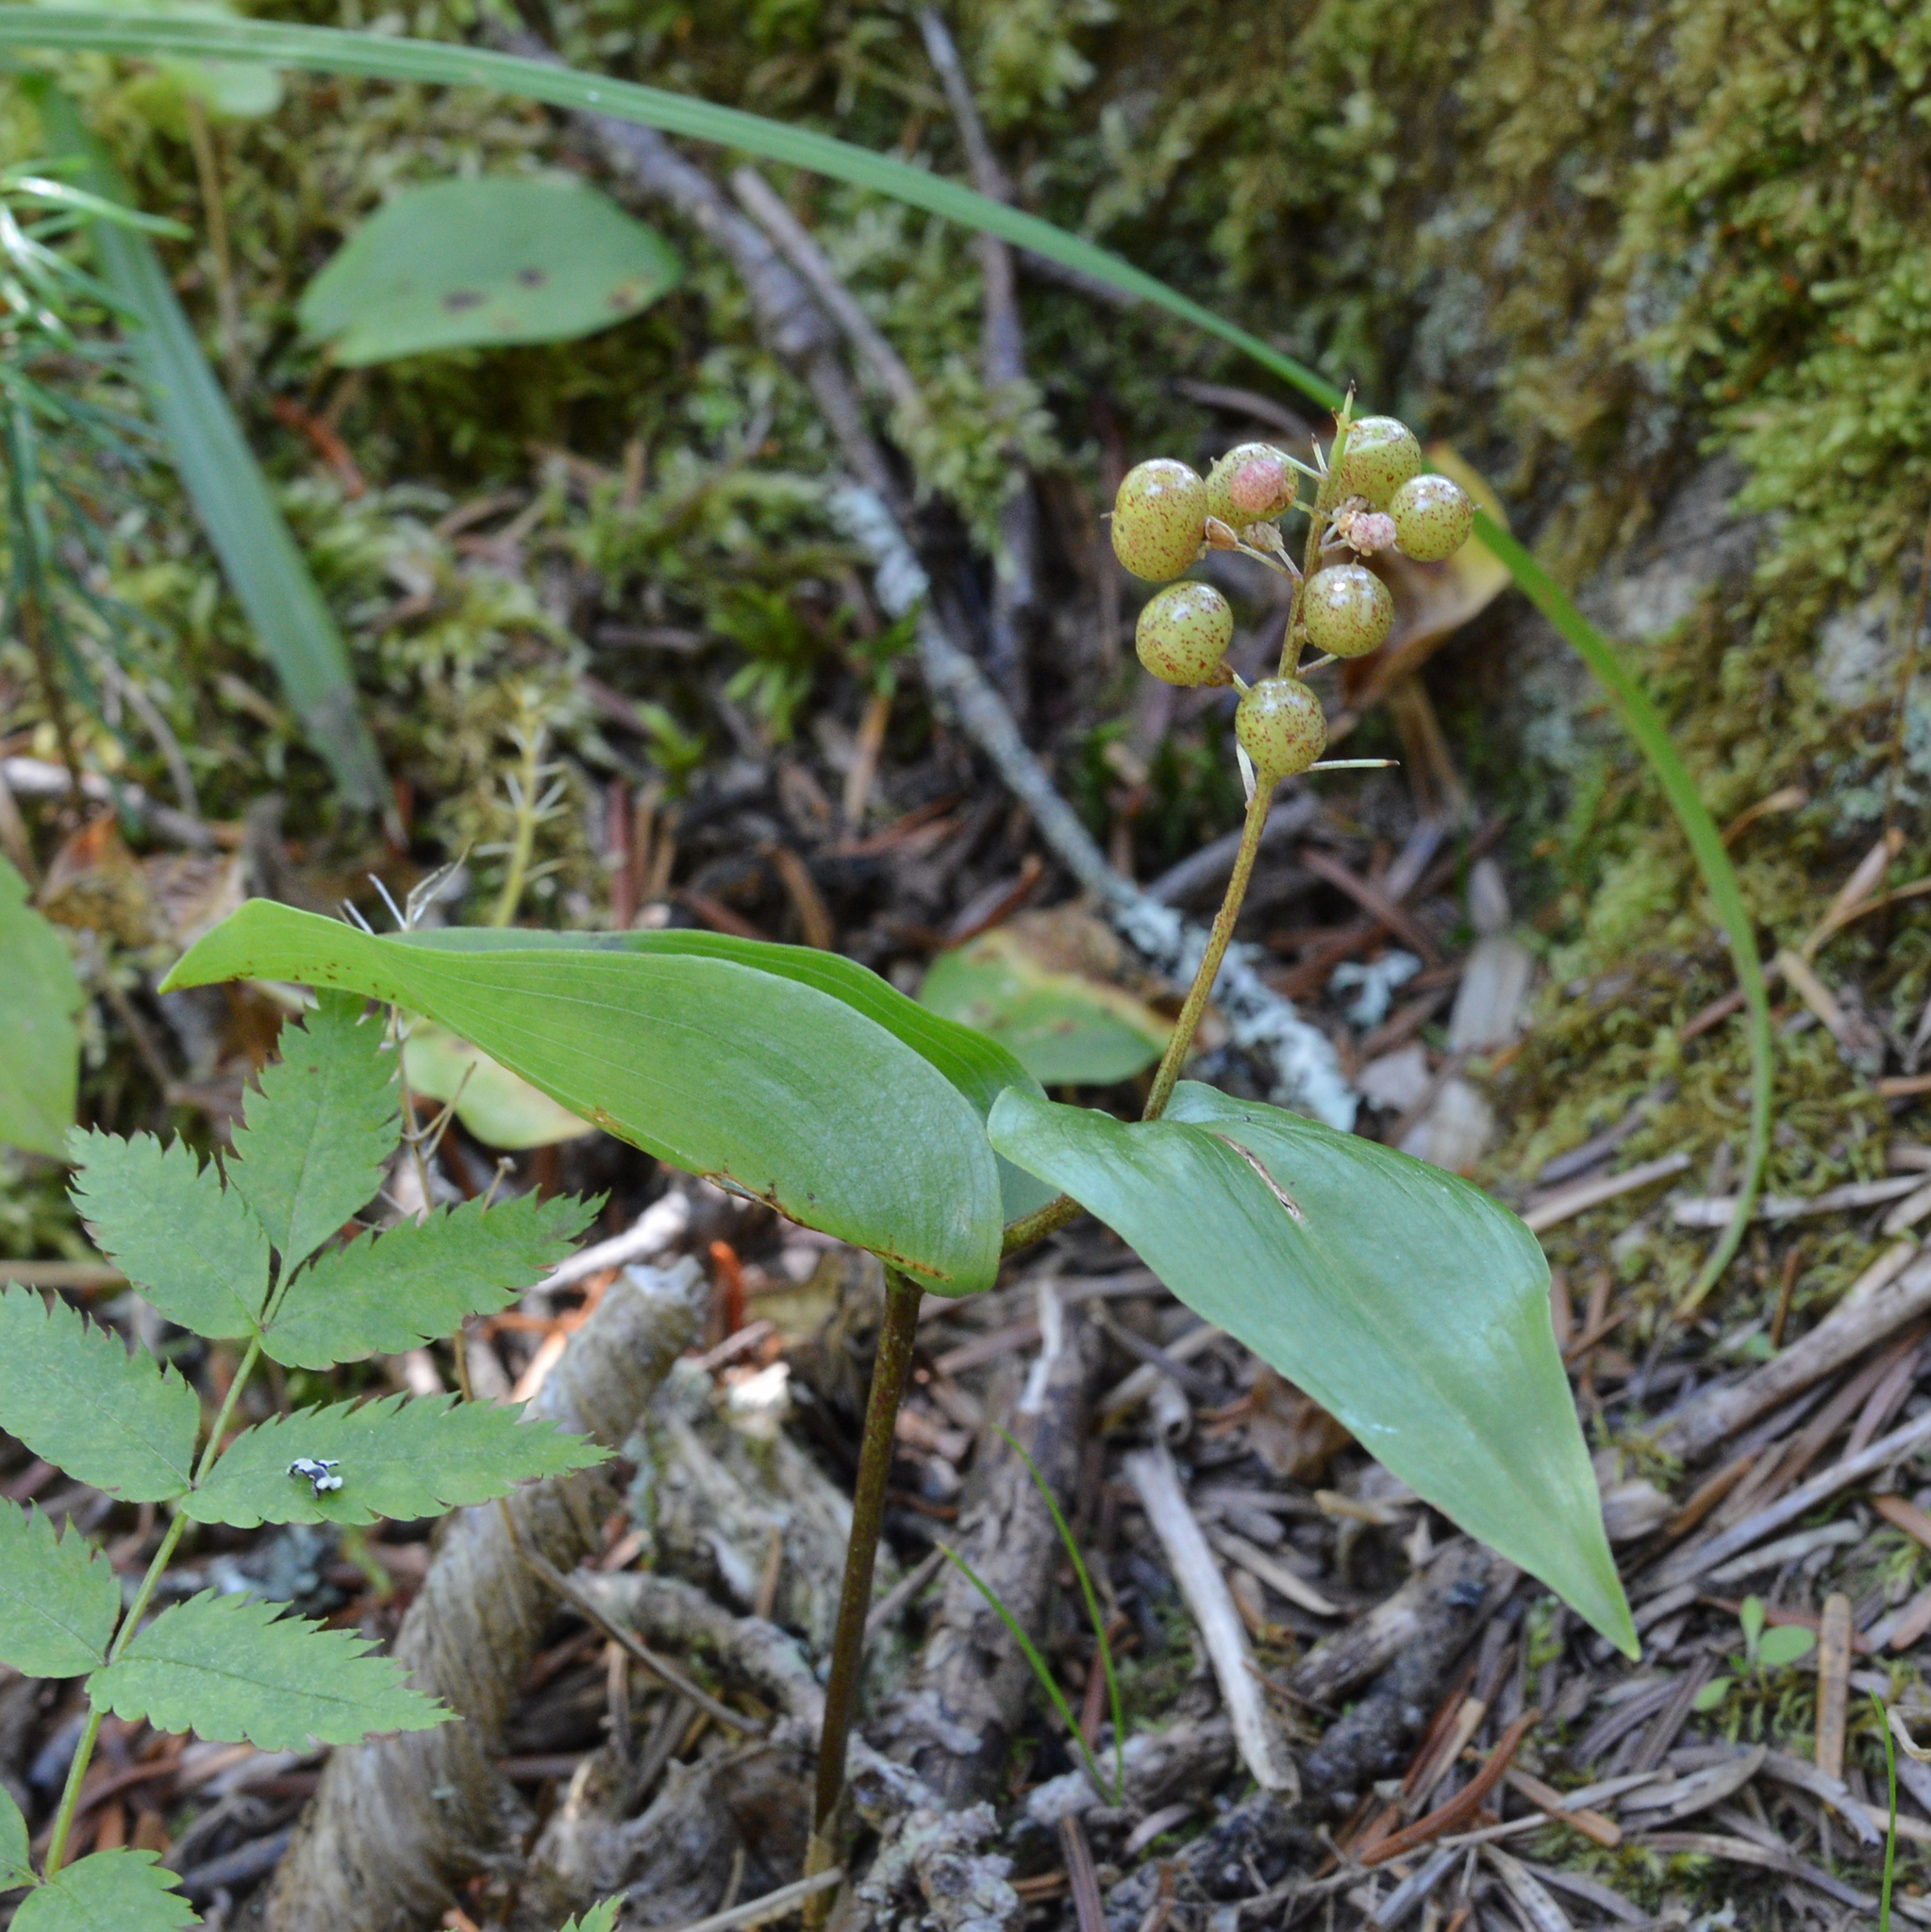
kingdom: Plantae
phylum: Tracheophyta
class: Liliopsida
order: Asparagales
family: Asparagaceae
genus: Maianthemum
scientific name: Maianthemum canadense
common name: False lily-of-the-valley
